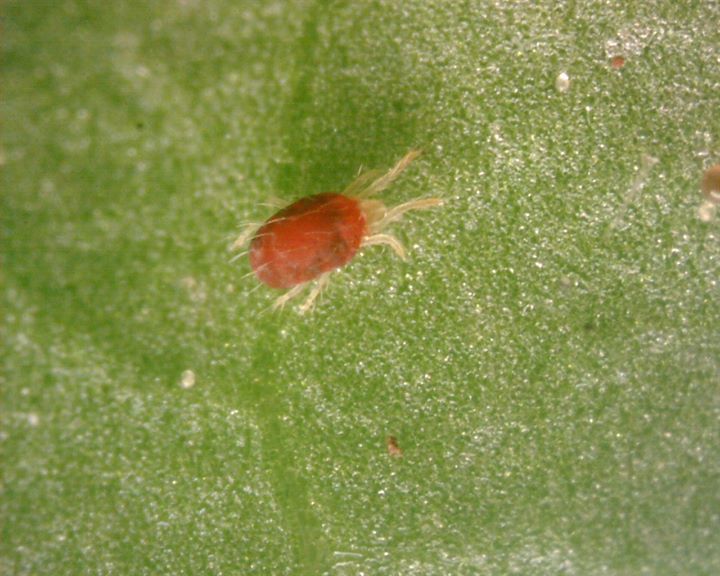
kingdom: Animalia
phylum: Arthropoda
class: Arachnida
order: Trombidiformes
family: Tetranychidae
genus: Tetranychus
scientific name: Tetranychus urticae
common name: Carmine spider mite
